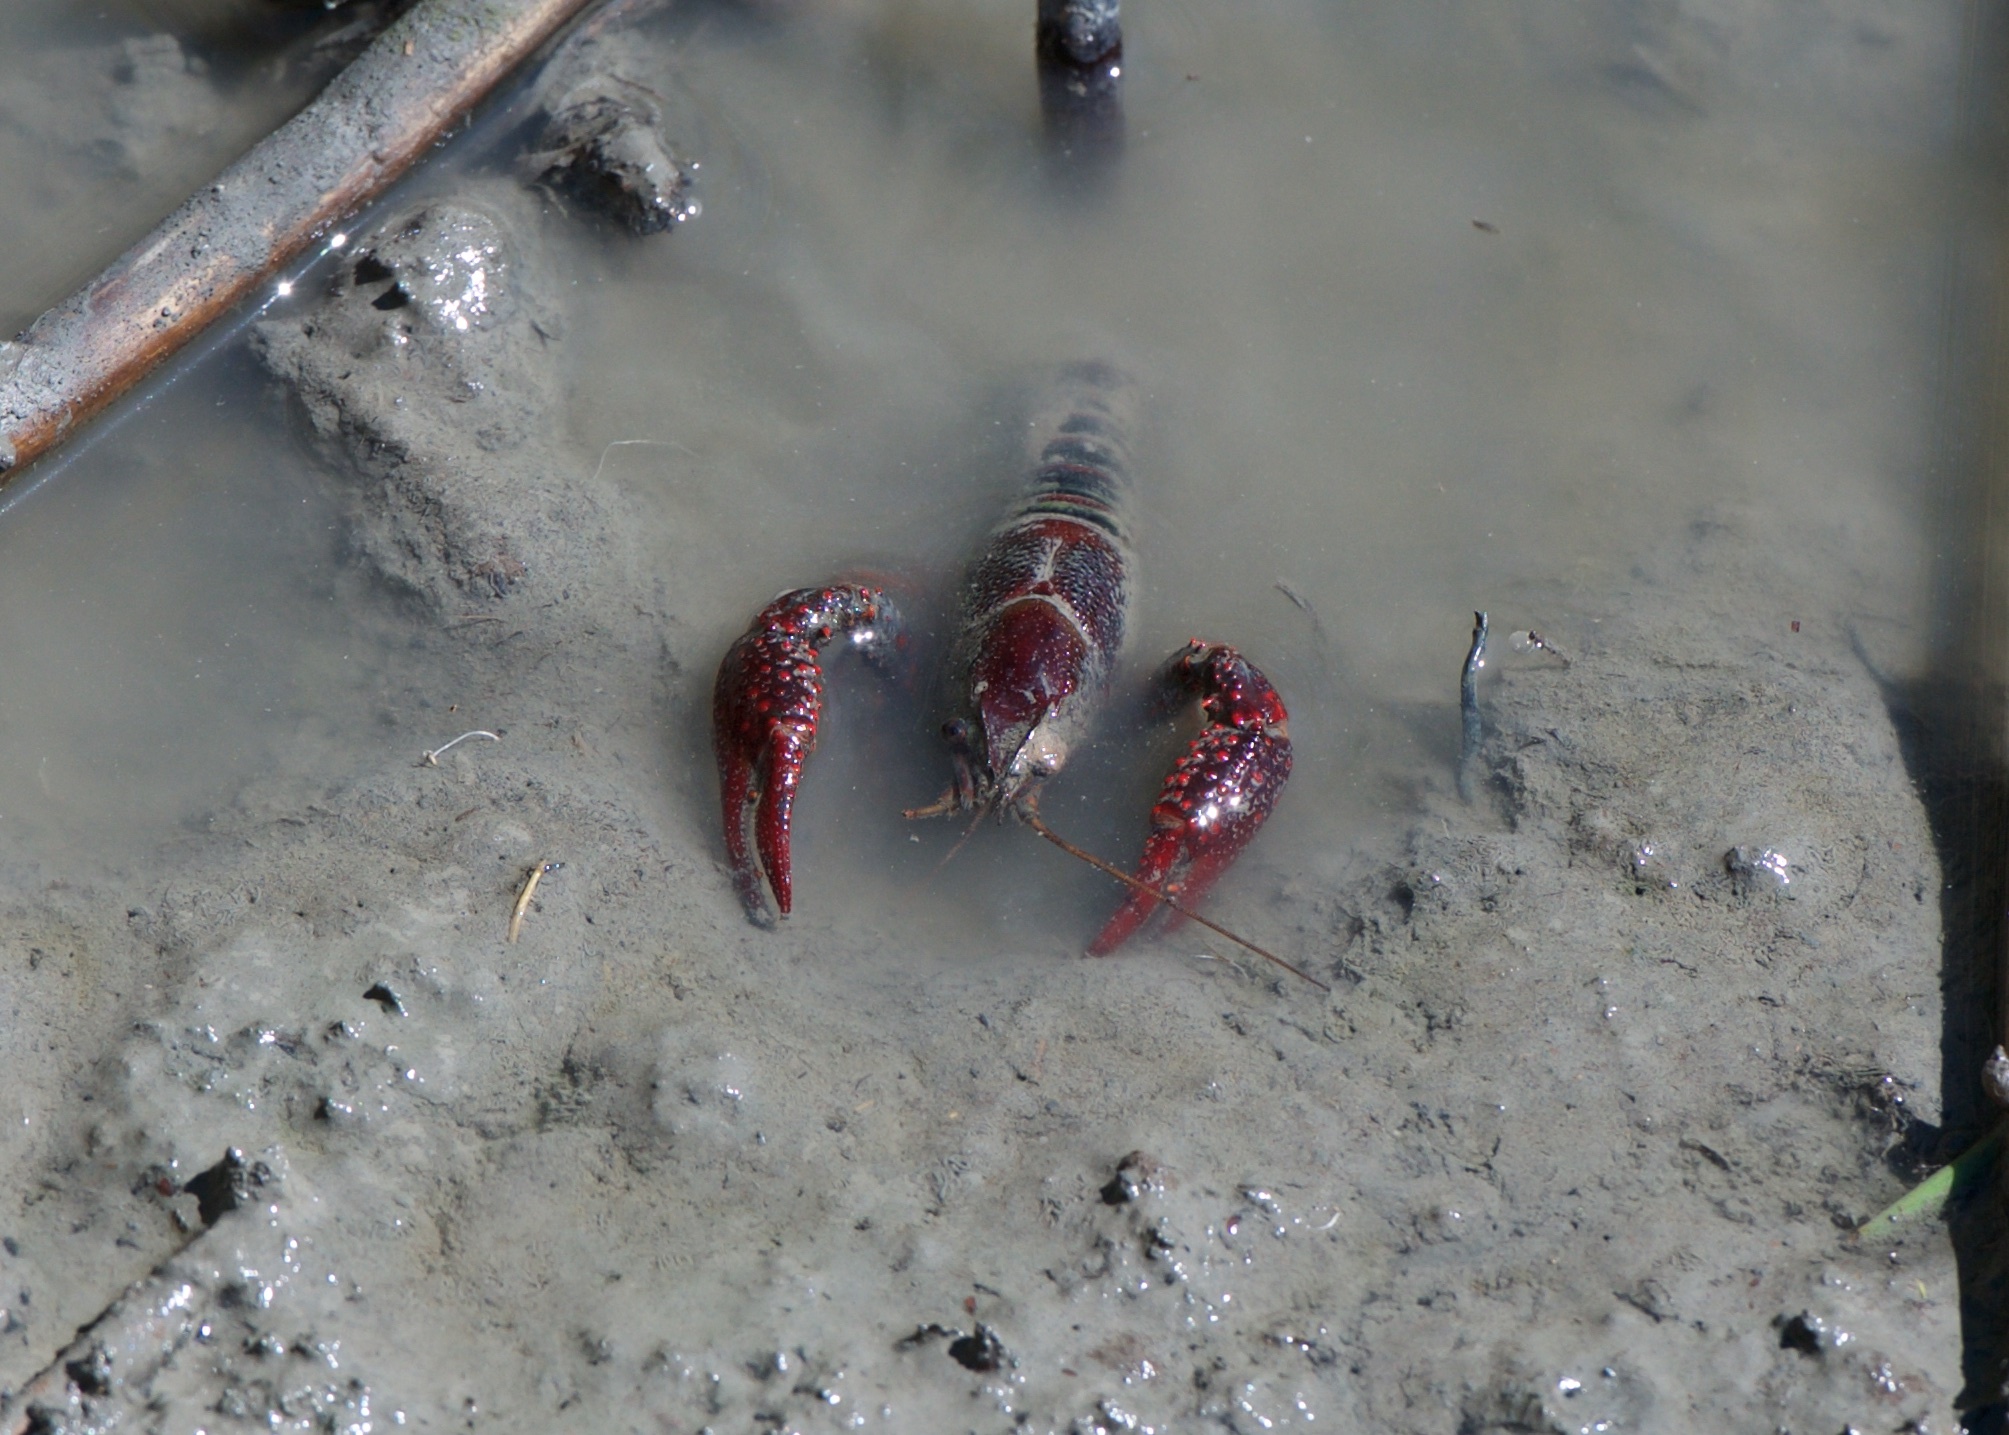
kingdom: Animalia
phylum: Arthropoda
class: Malacostraca
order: Decapoda
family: Cambaridae
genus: Procambarus
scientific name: Procambarus clarkii
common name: Red swamp crayfish
